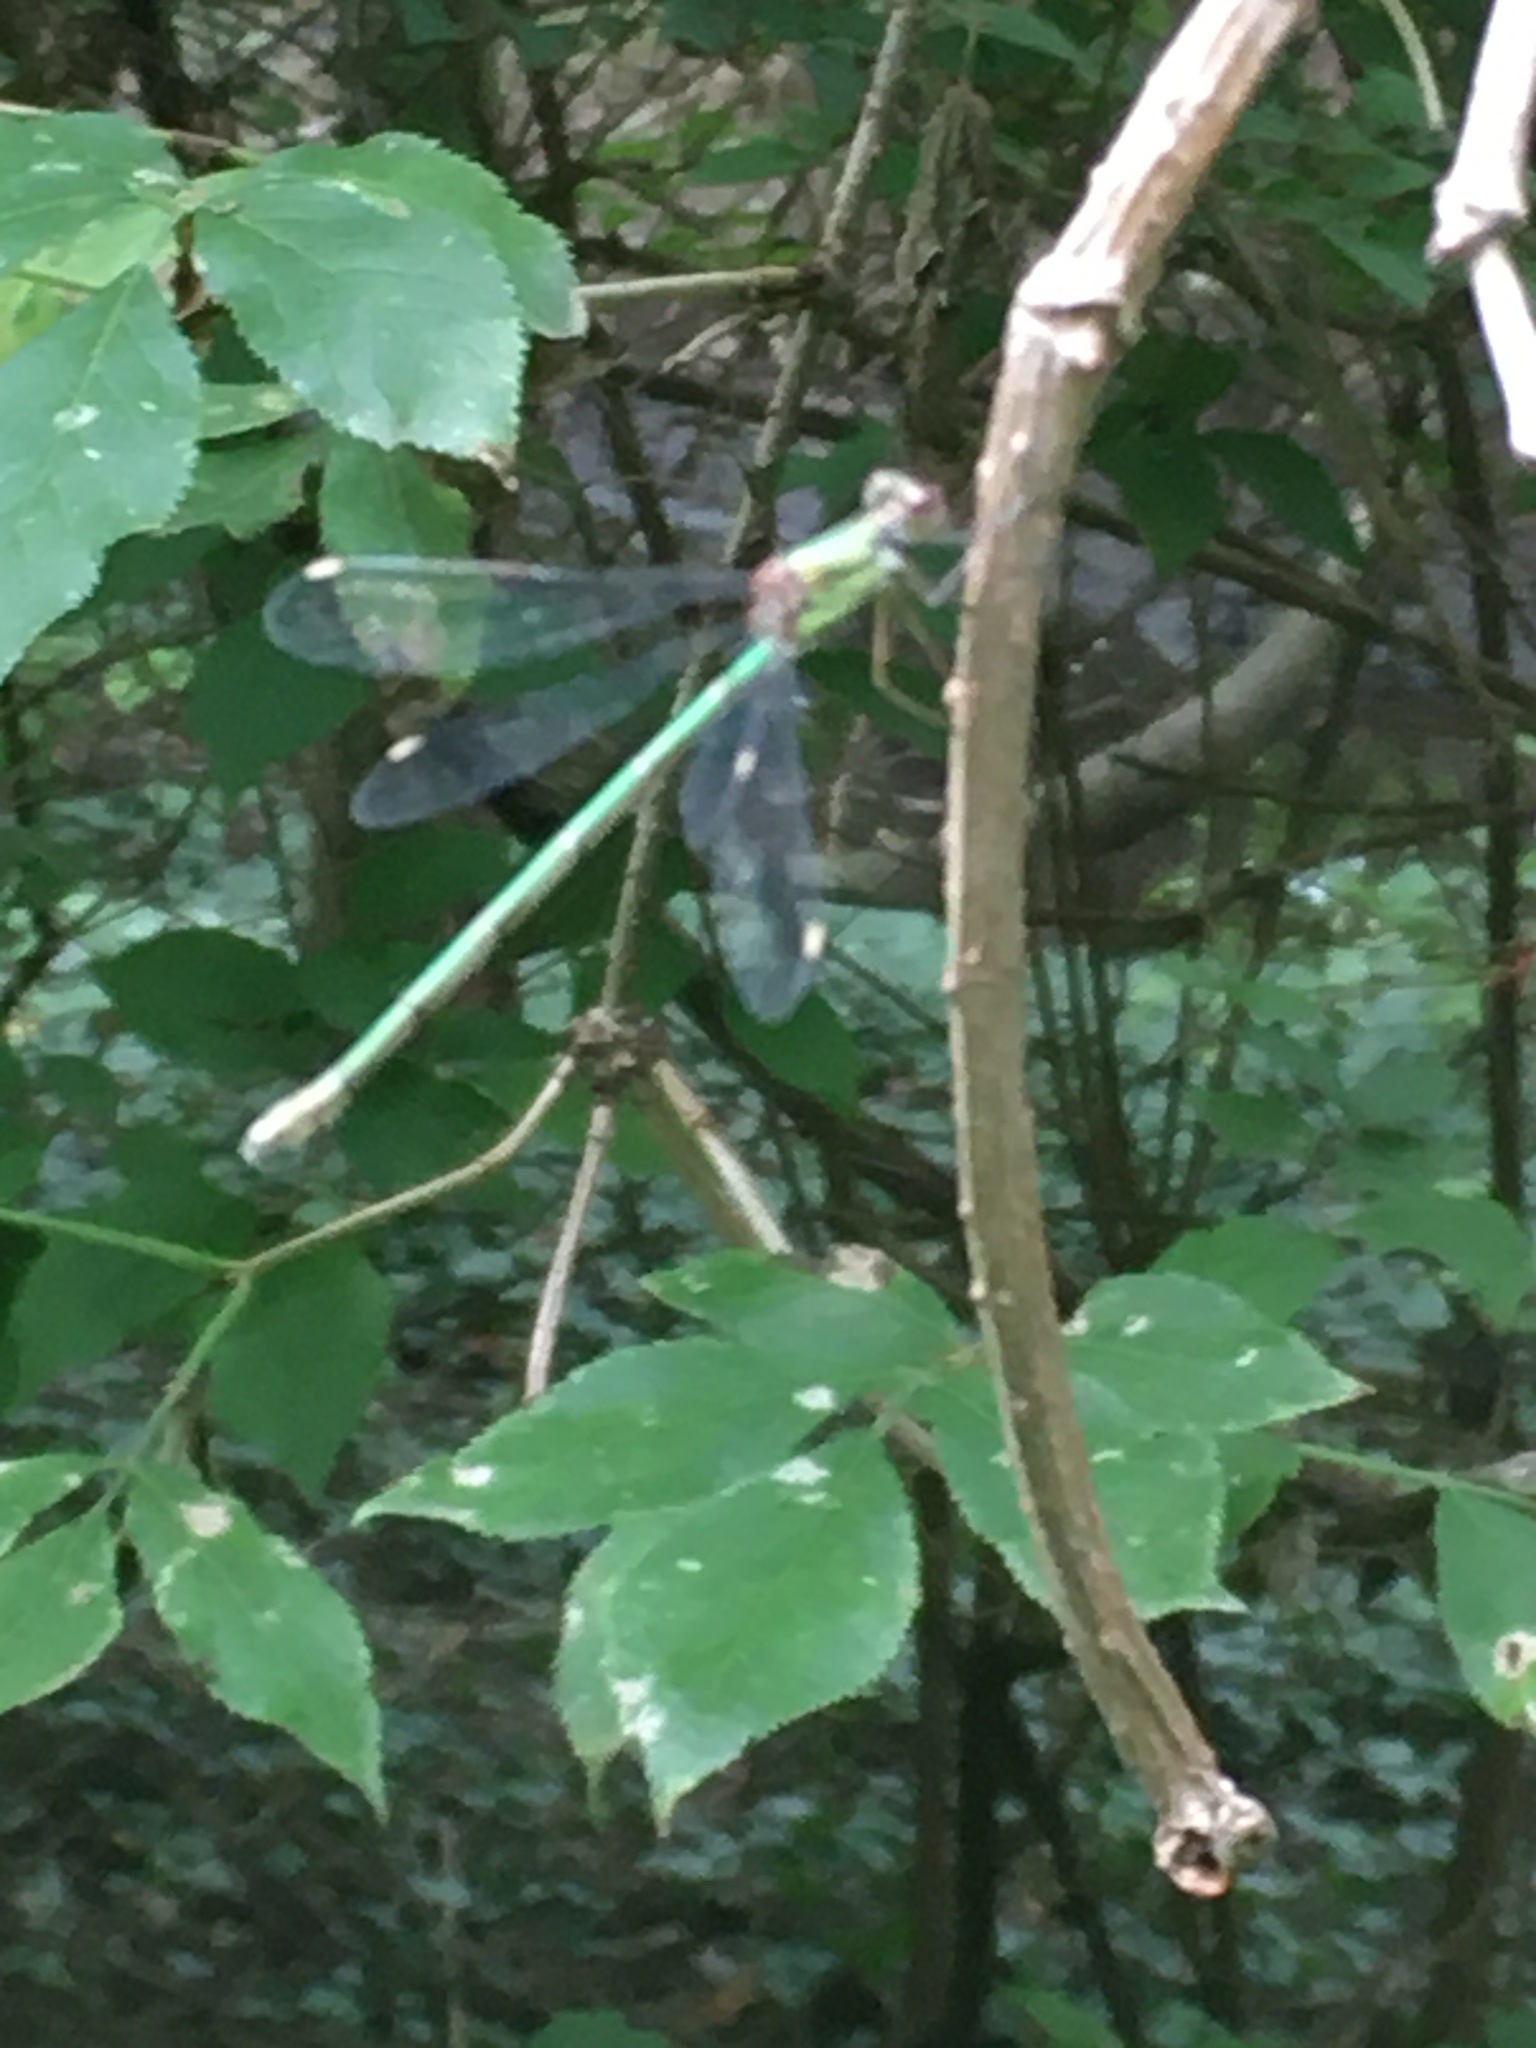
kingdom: Animalia
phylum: Arthropoda
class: Insecta
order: Odonata
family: Lestidae
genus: Chalcolestes
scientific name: Chalcolestes viridis
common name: Green emerald damselfly
